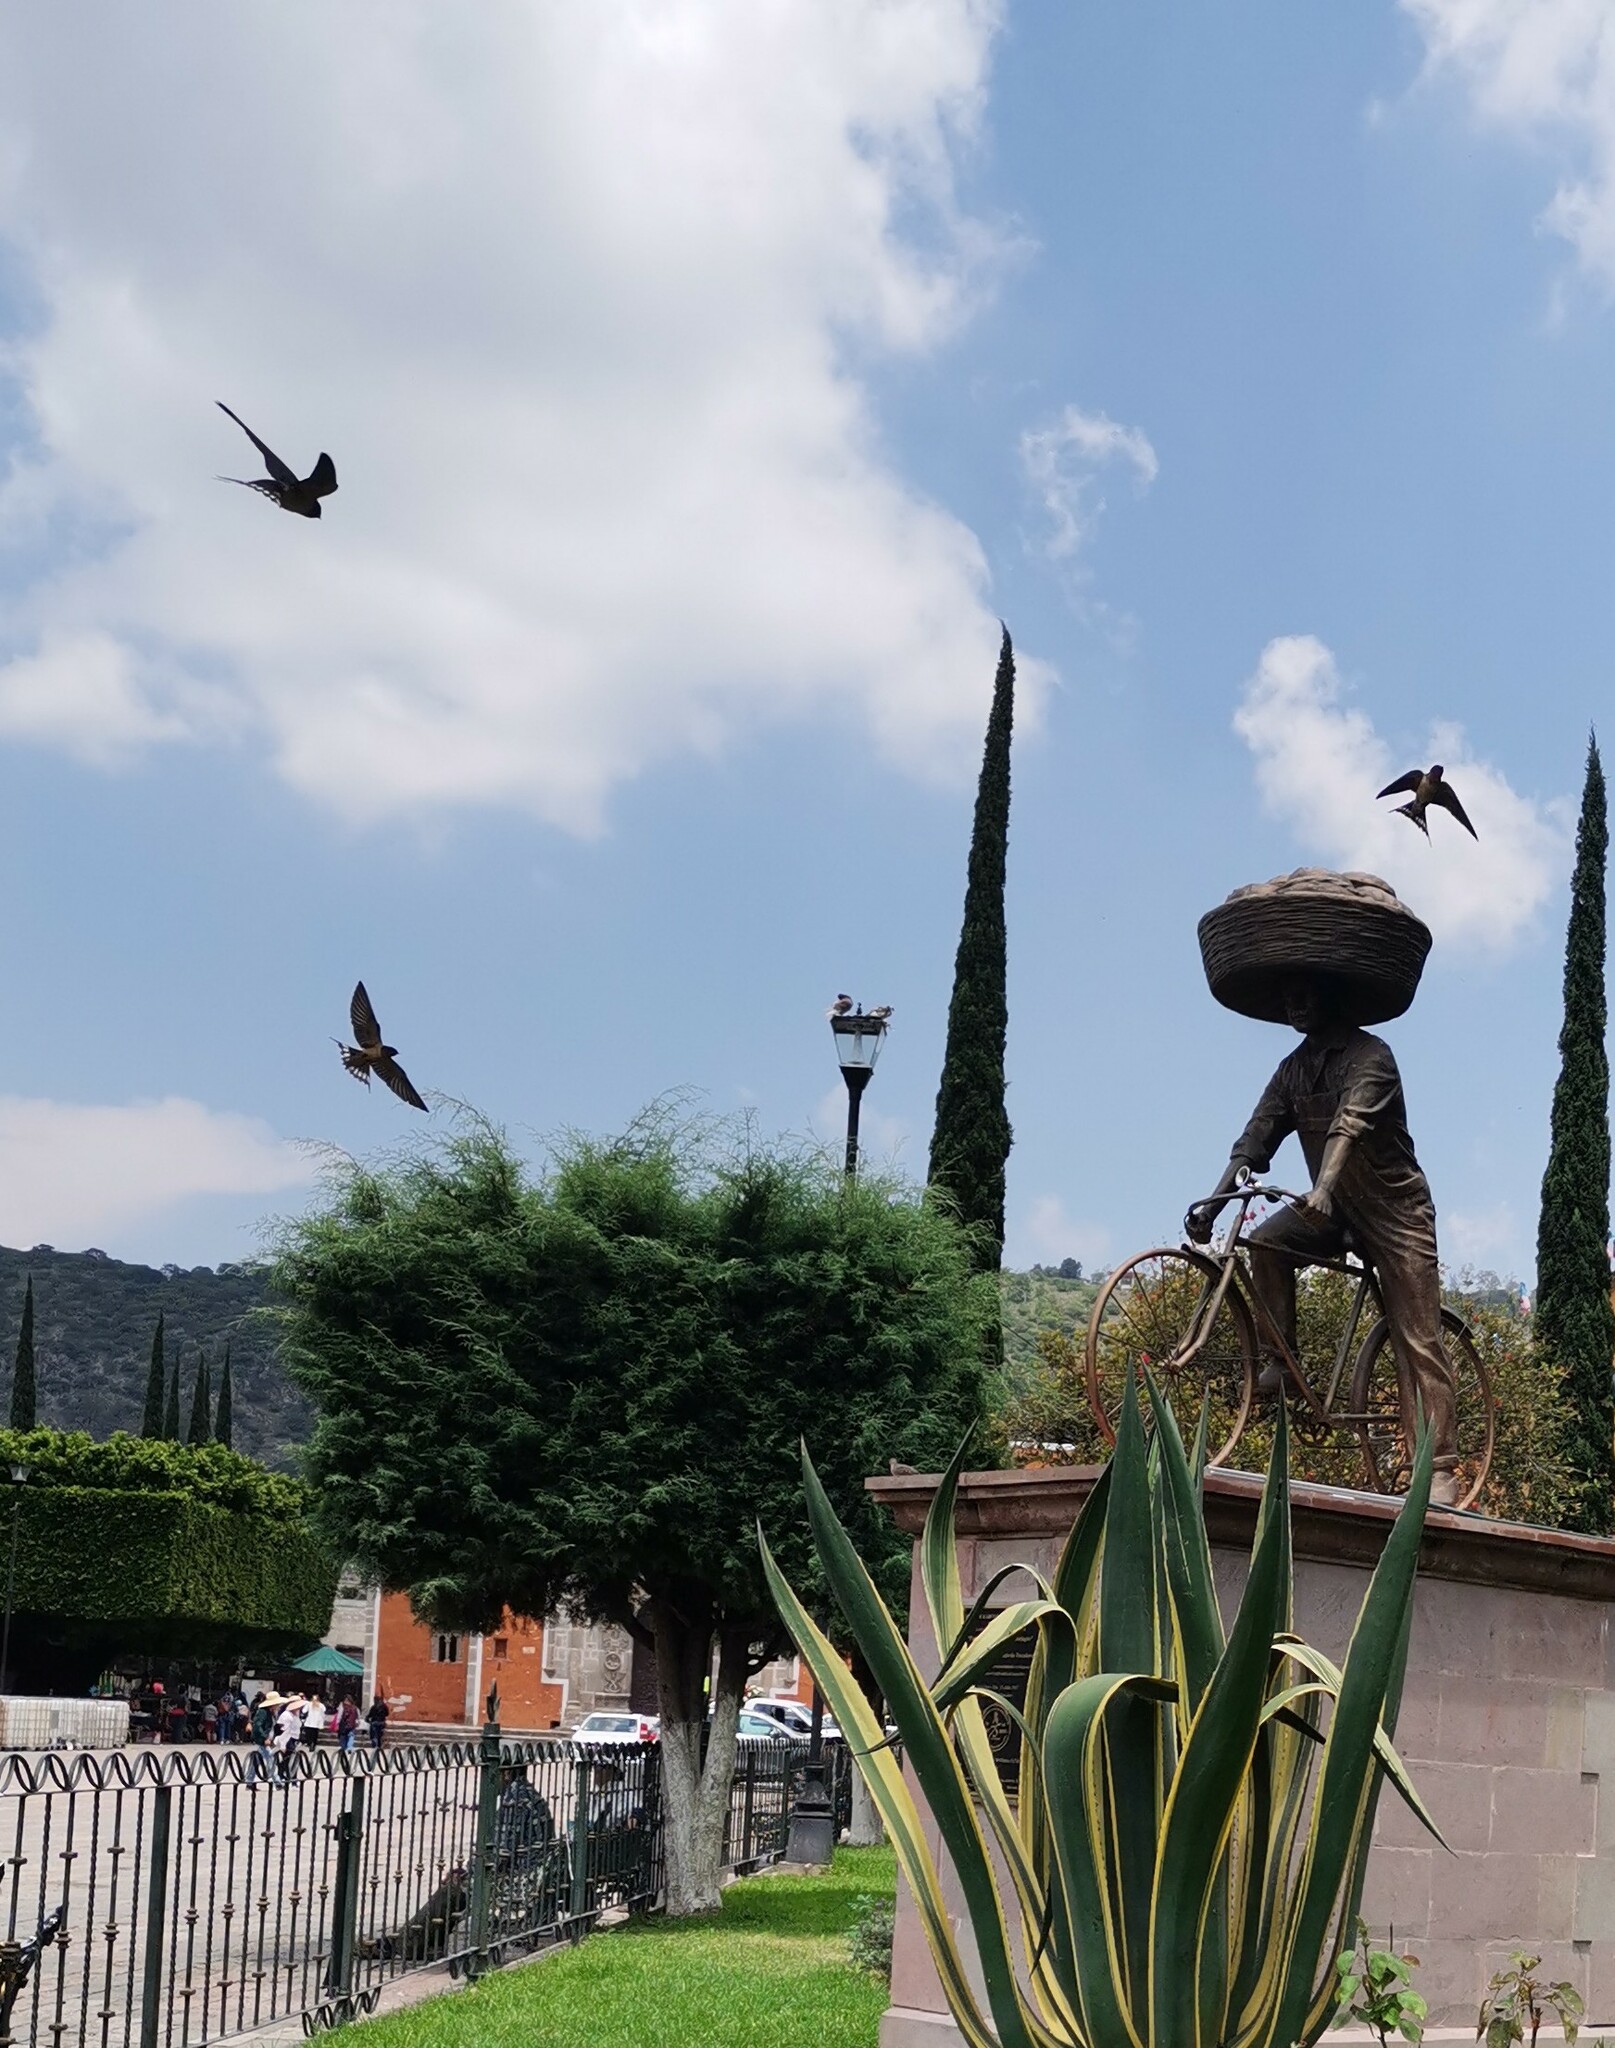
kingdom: Animalia
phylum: Chordata
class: Aves
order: Passeriformes
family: Hirundinidae
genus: Hirundo
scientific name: Hirundo rustica
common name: Barn swallow
